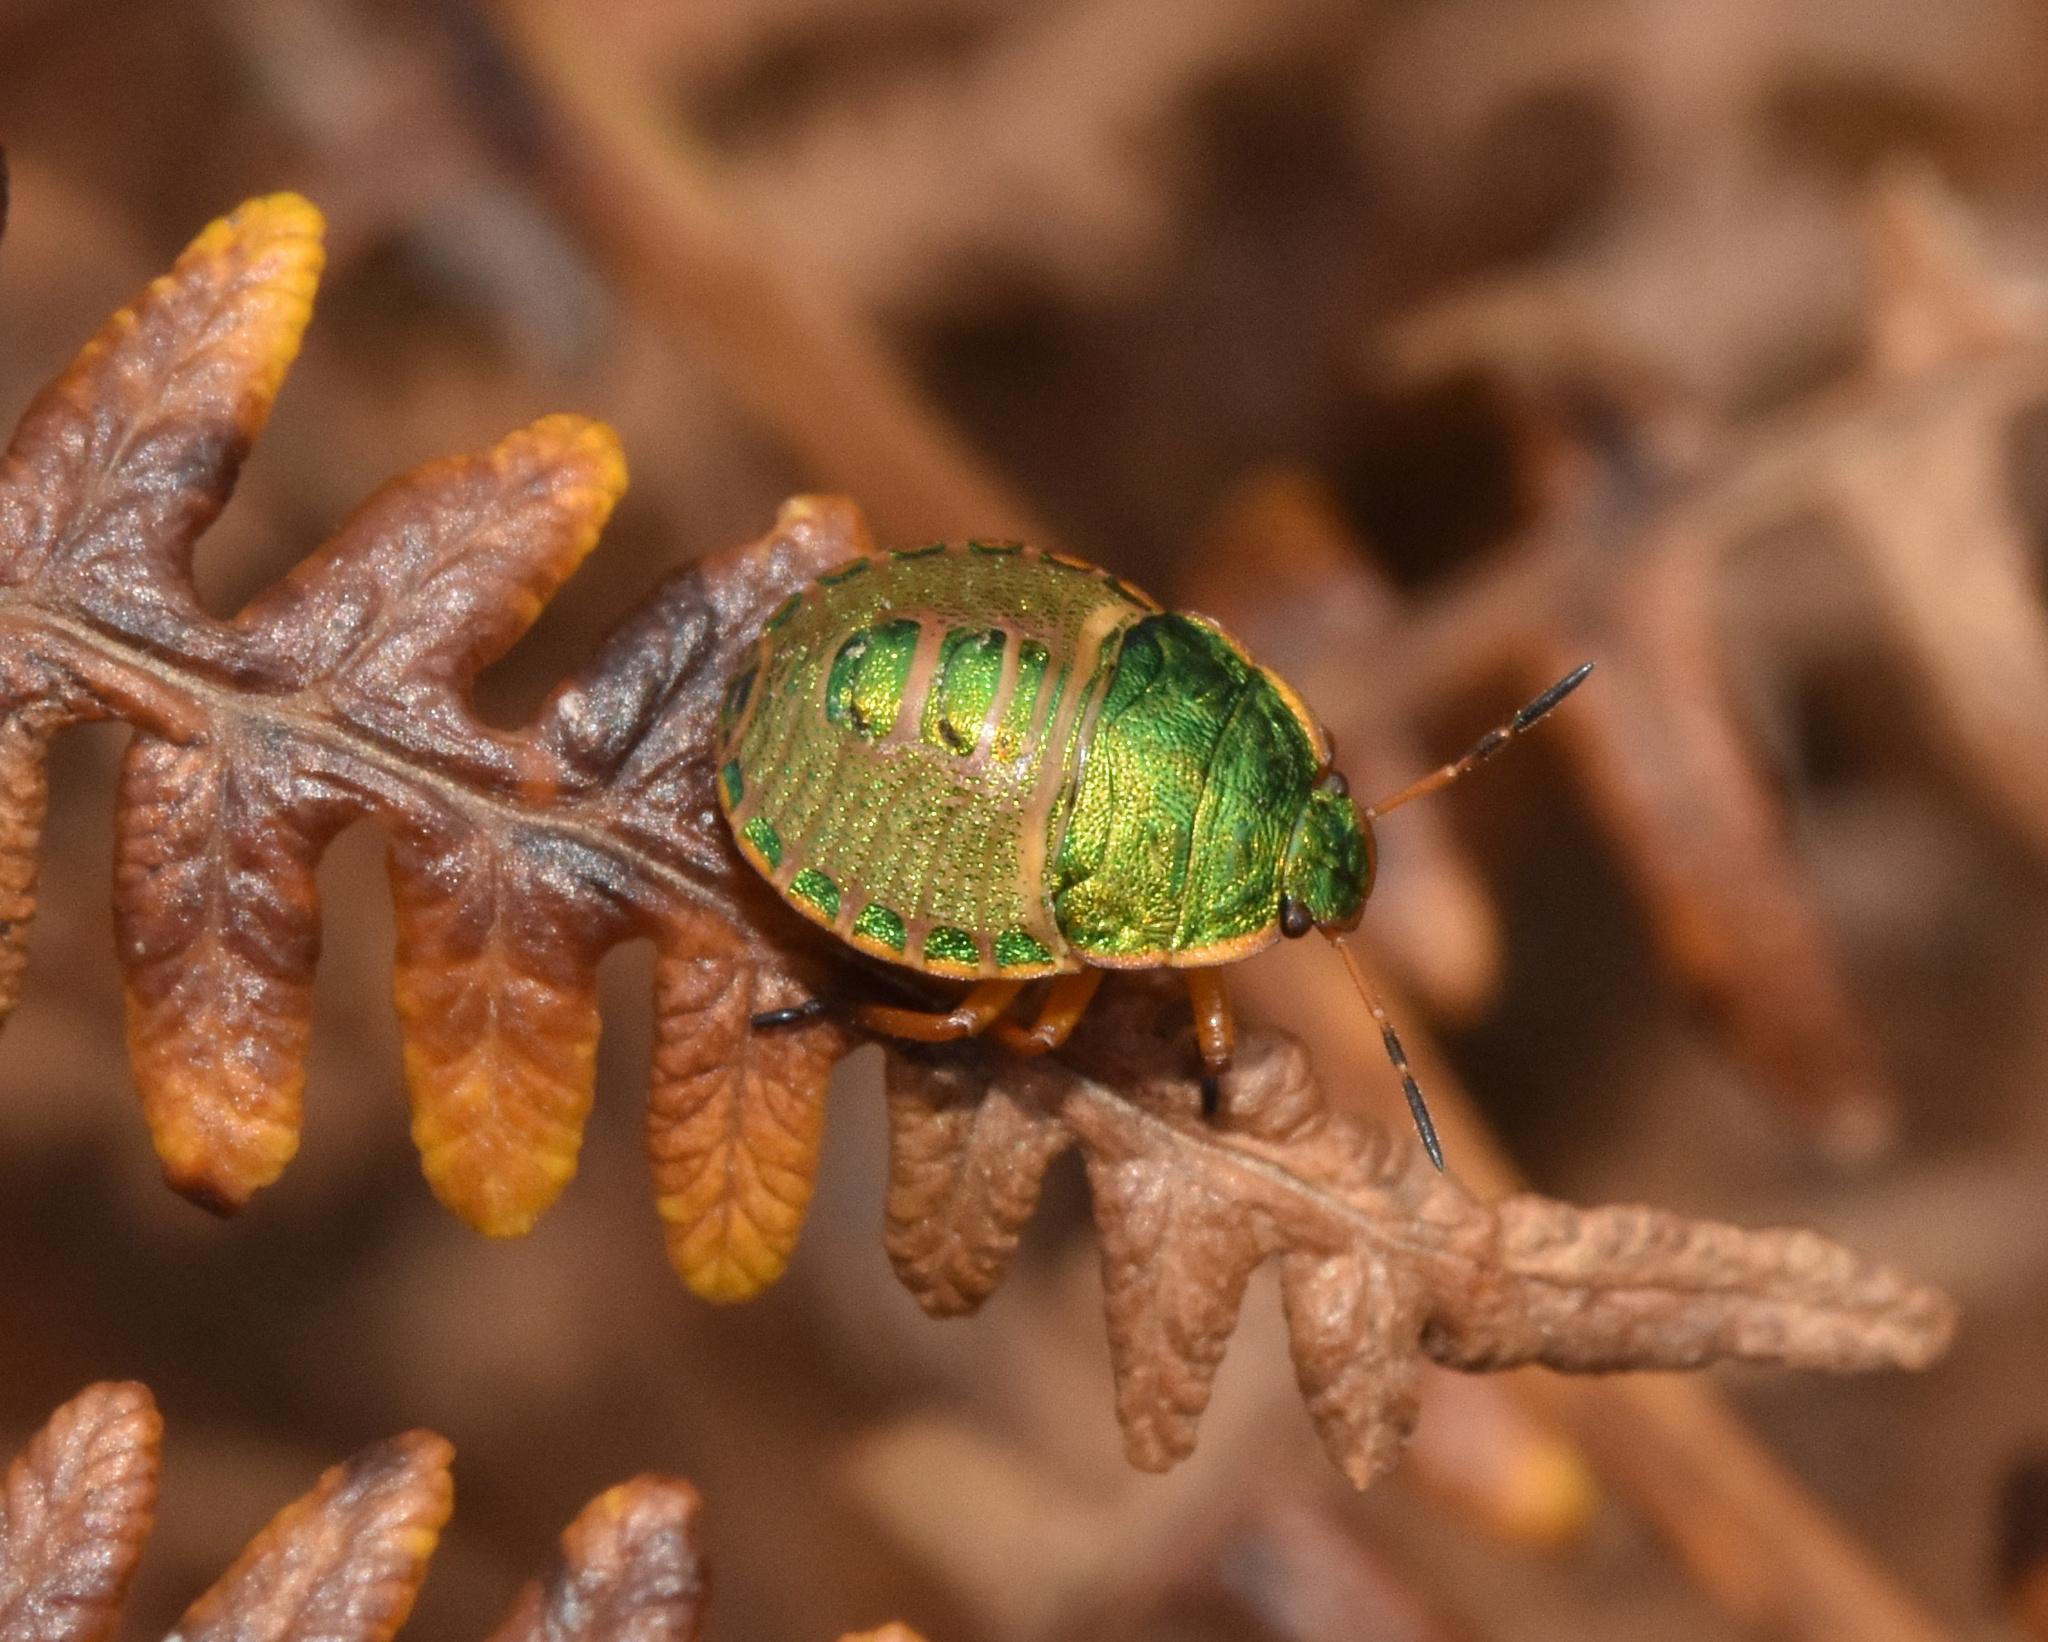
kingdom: Animalia
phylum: Arthropoda
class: Insecta
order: Hemiptera
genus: Erachtheus
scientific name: Erachtheus
